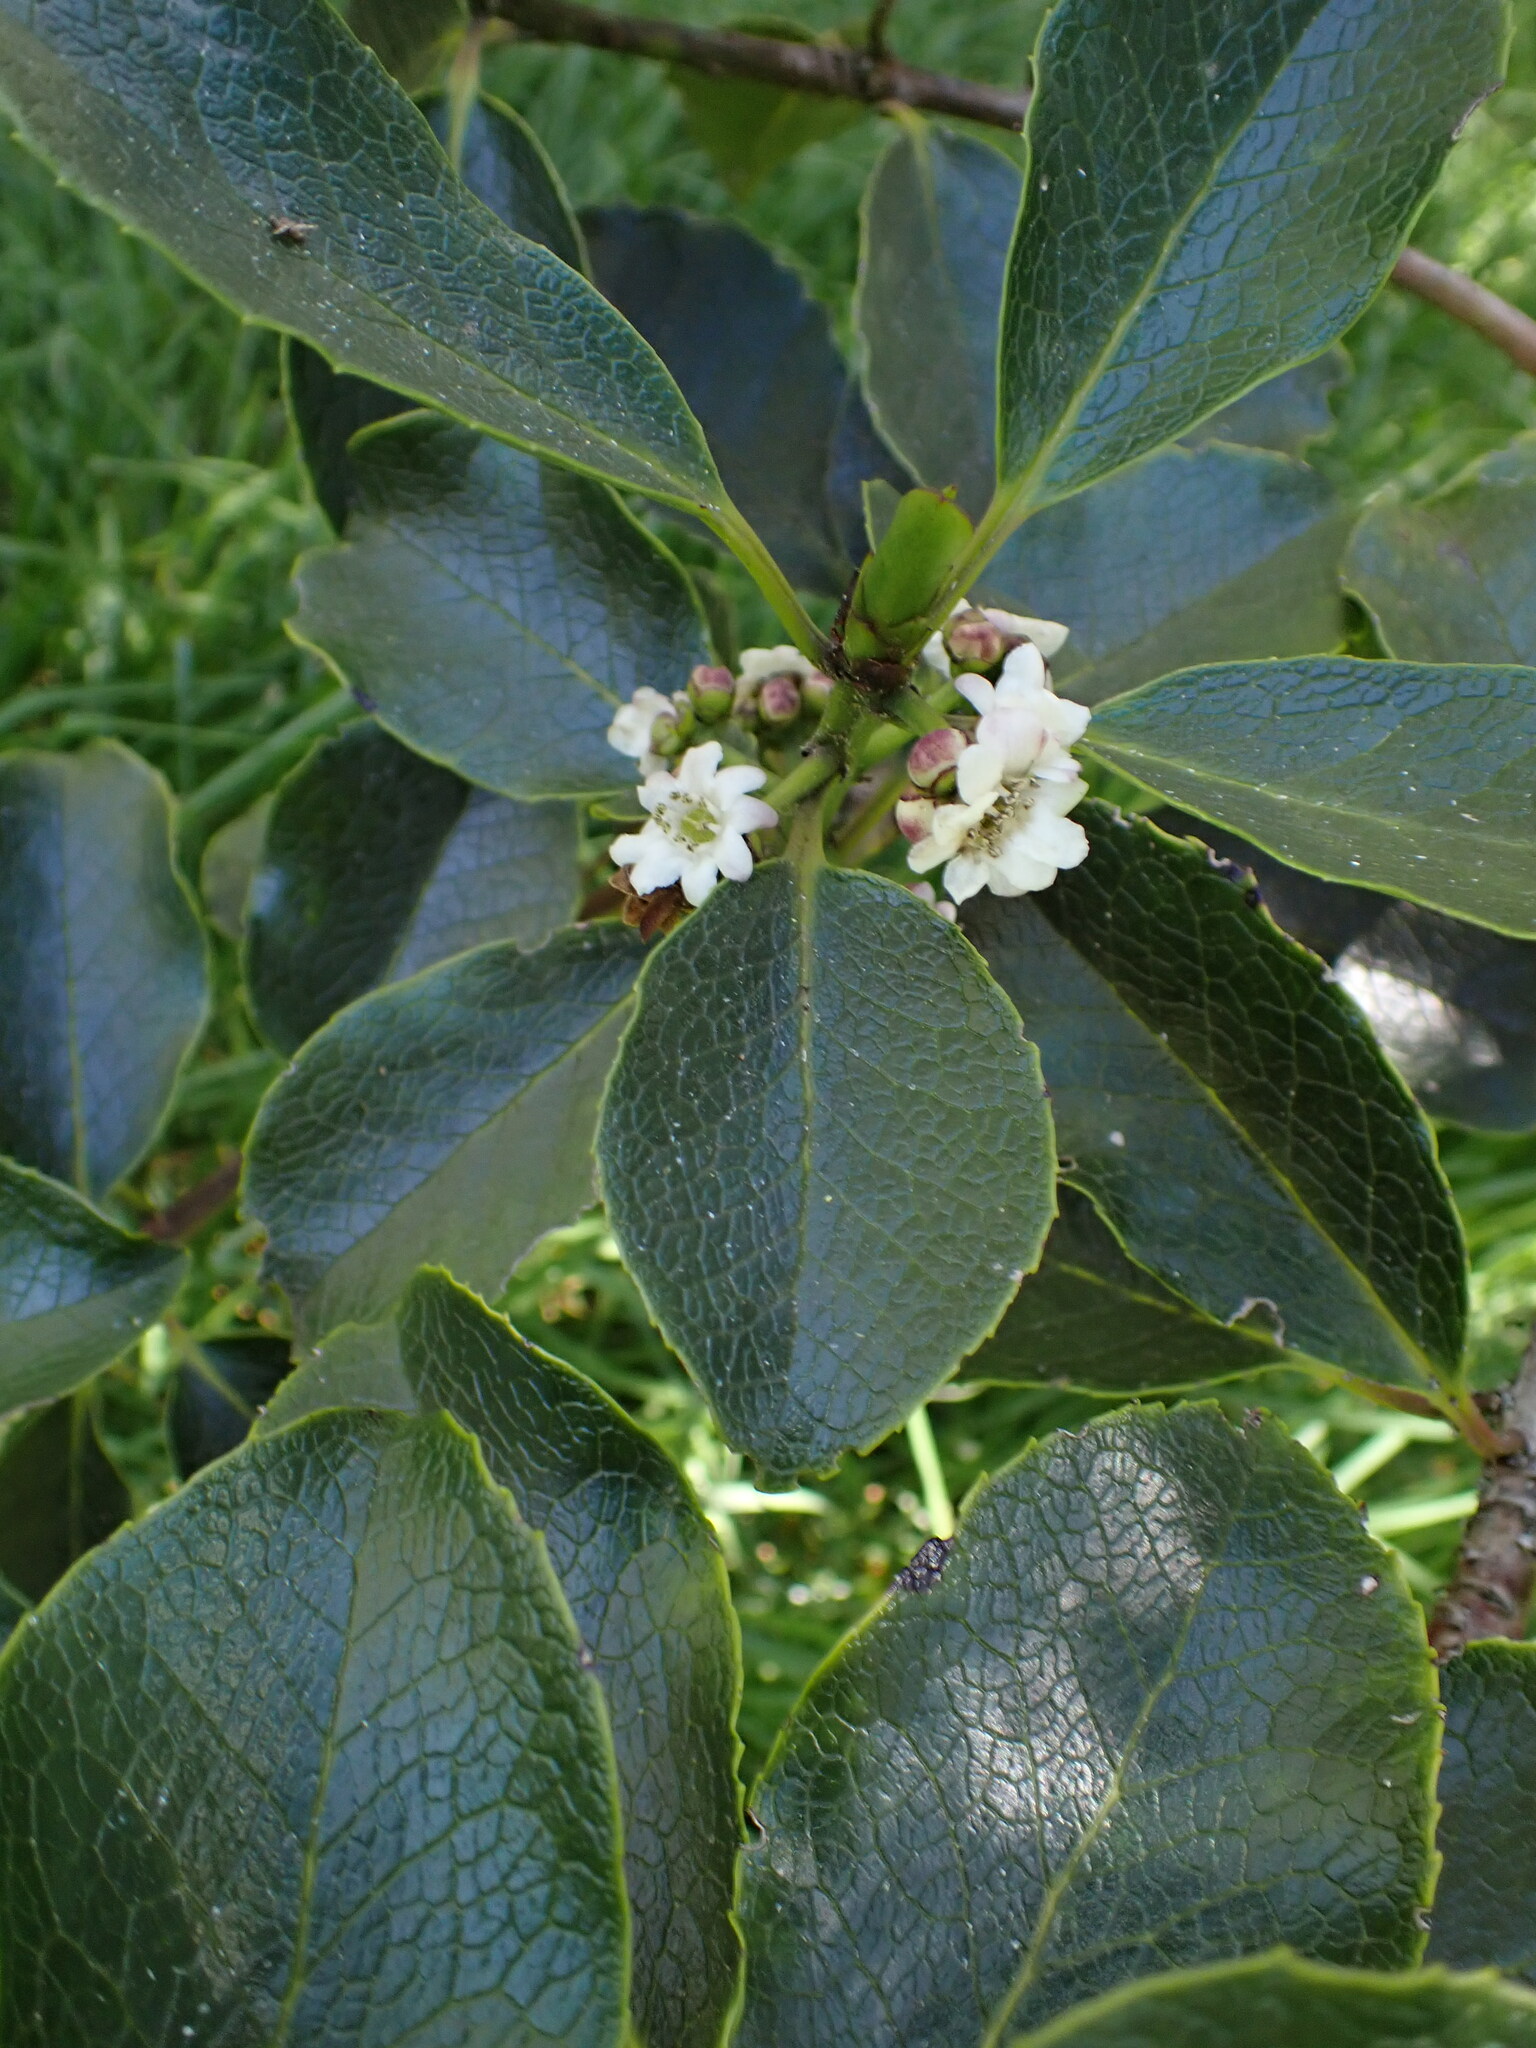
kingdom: Plantae
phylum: Tracheophyta
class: Magnoliopsida
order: Aquifoliales
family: Aquifoliaceae
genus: Ilex
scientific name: Ilex anomala
